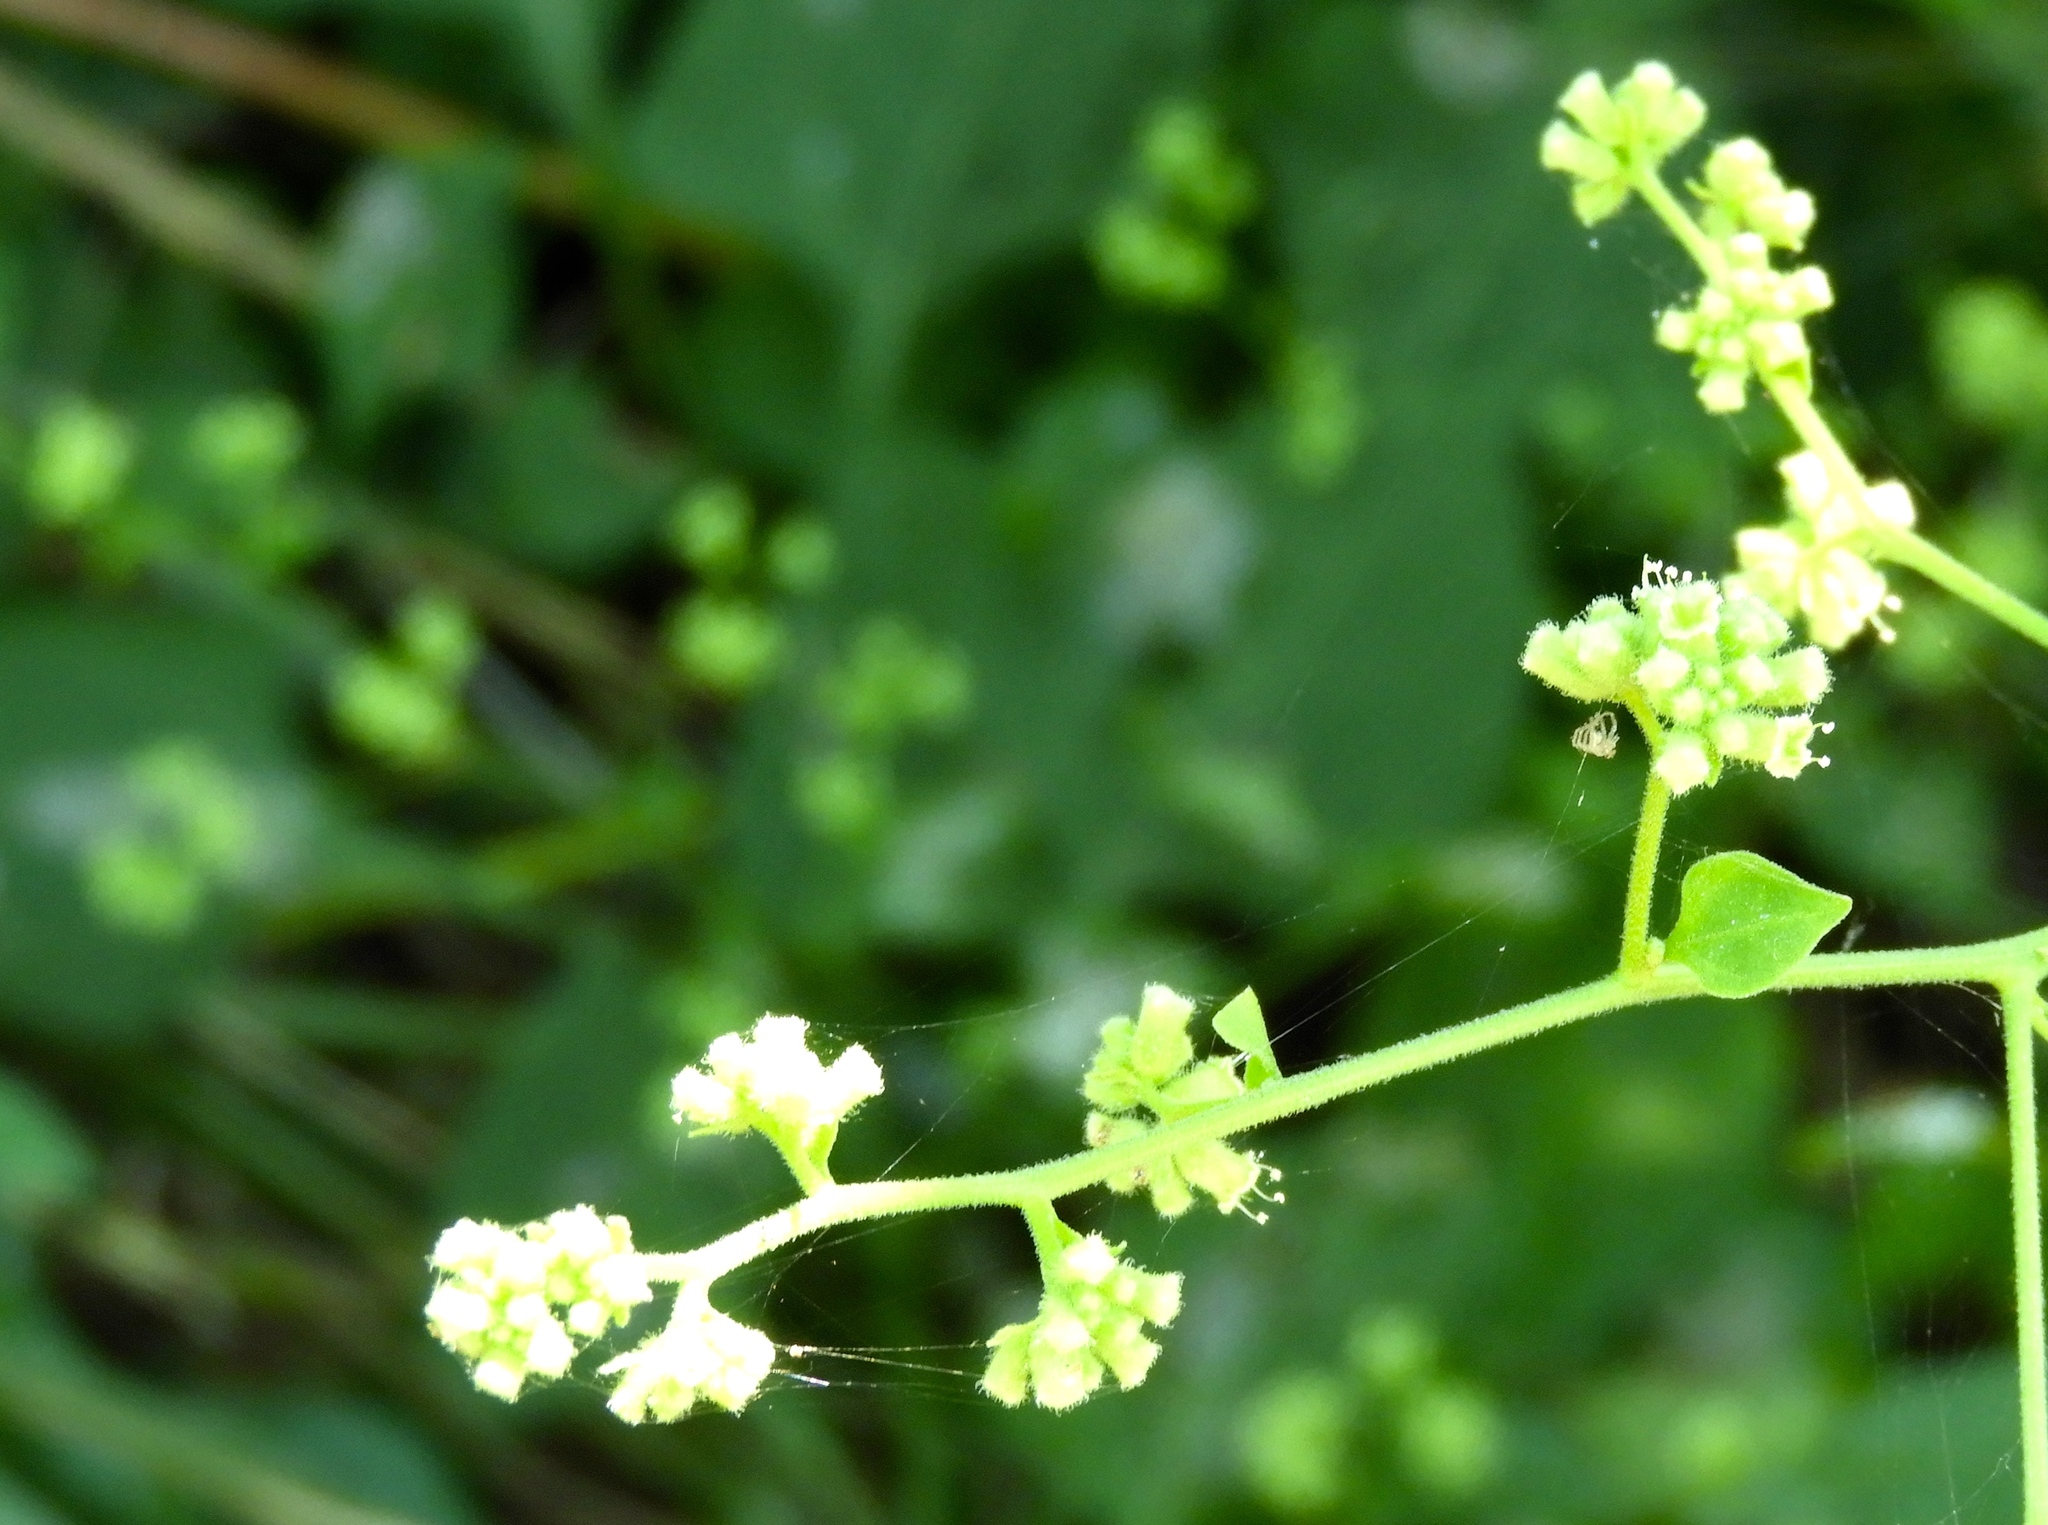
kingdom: Plantae
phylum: Tracheophyta
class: Magnoliopsida
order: Caryophyllales
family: Nyctaginaceae
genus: Salpianthus
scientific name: Salpianthus
